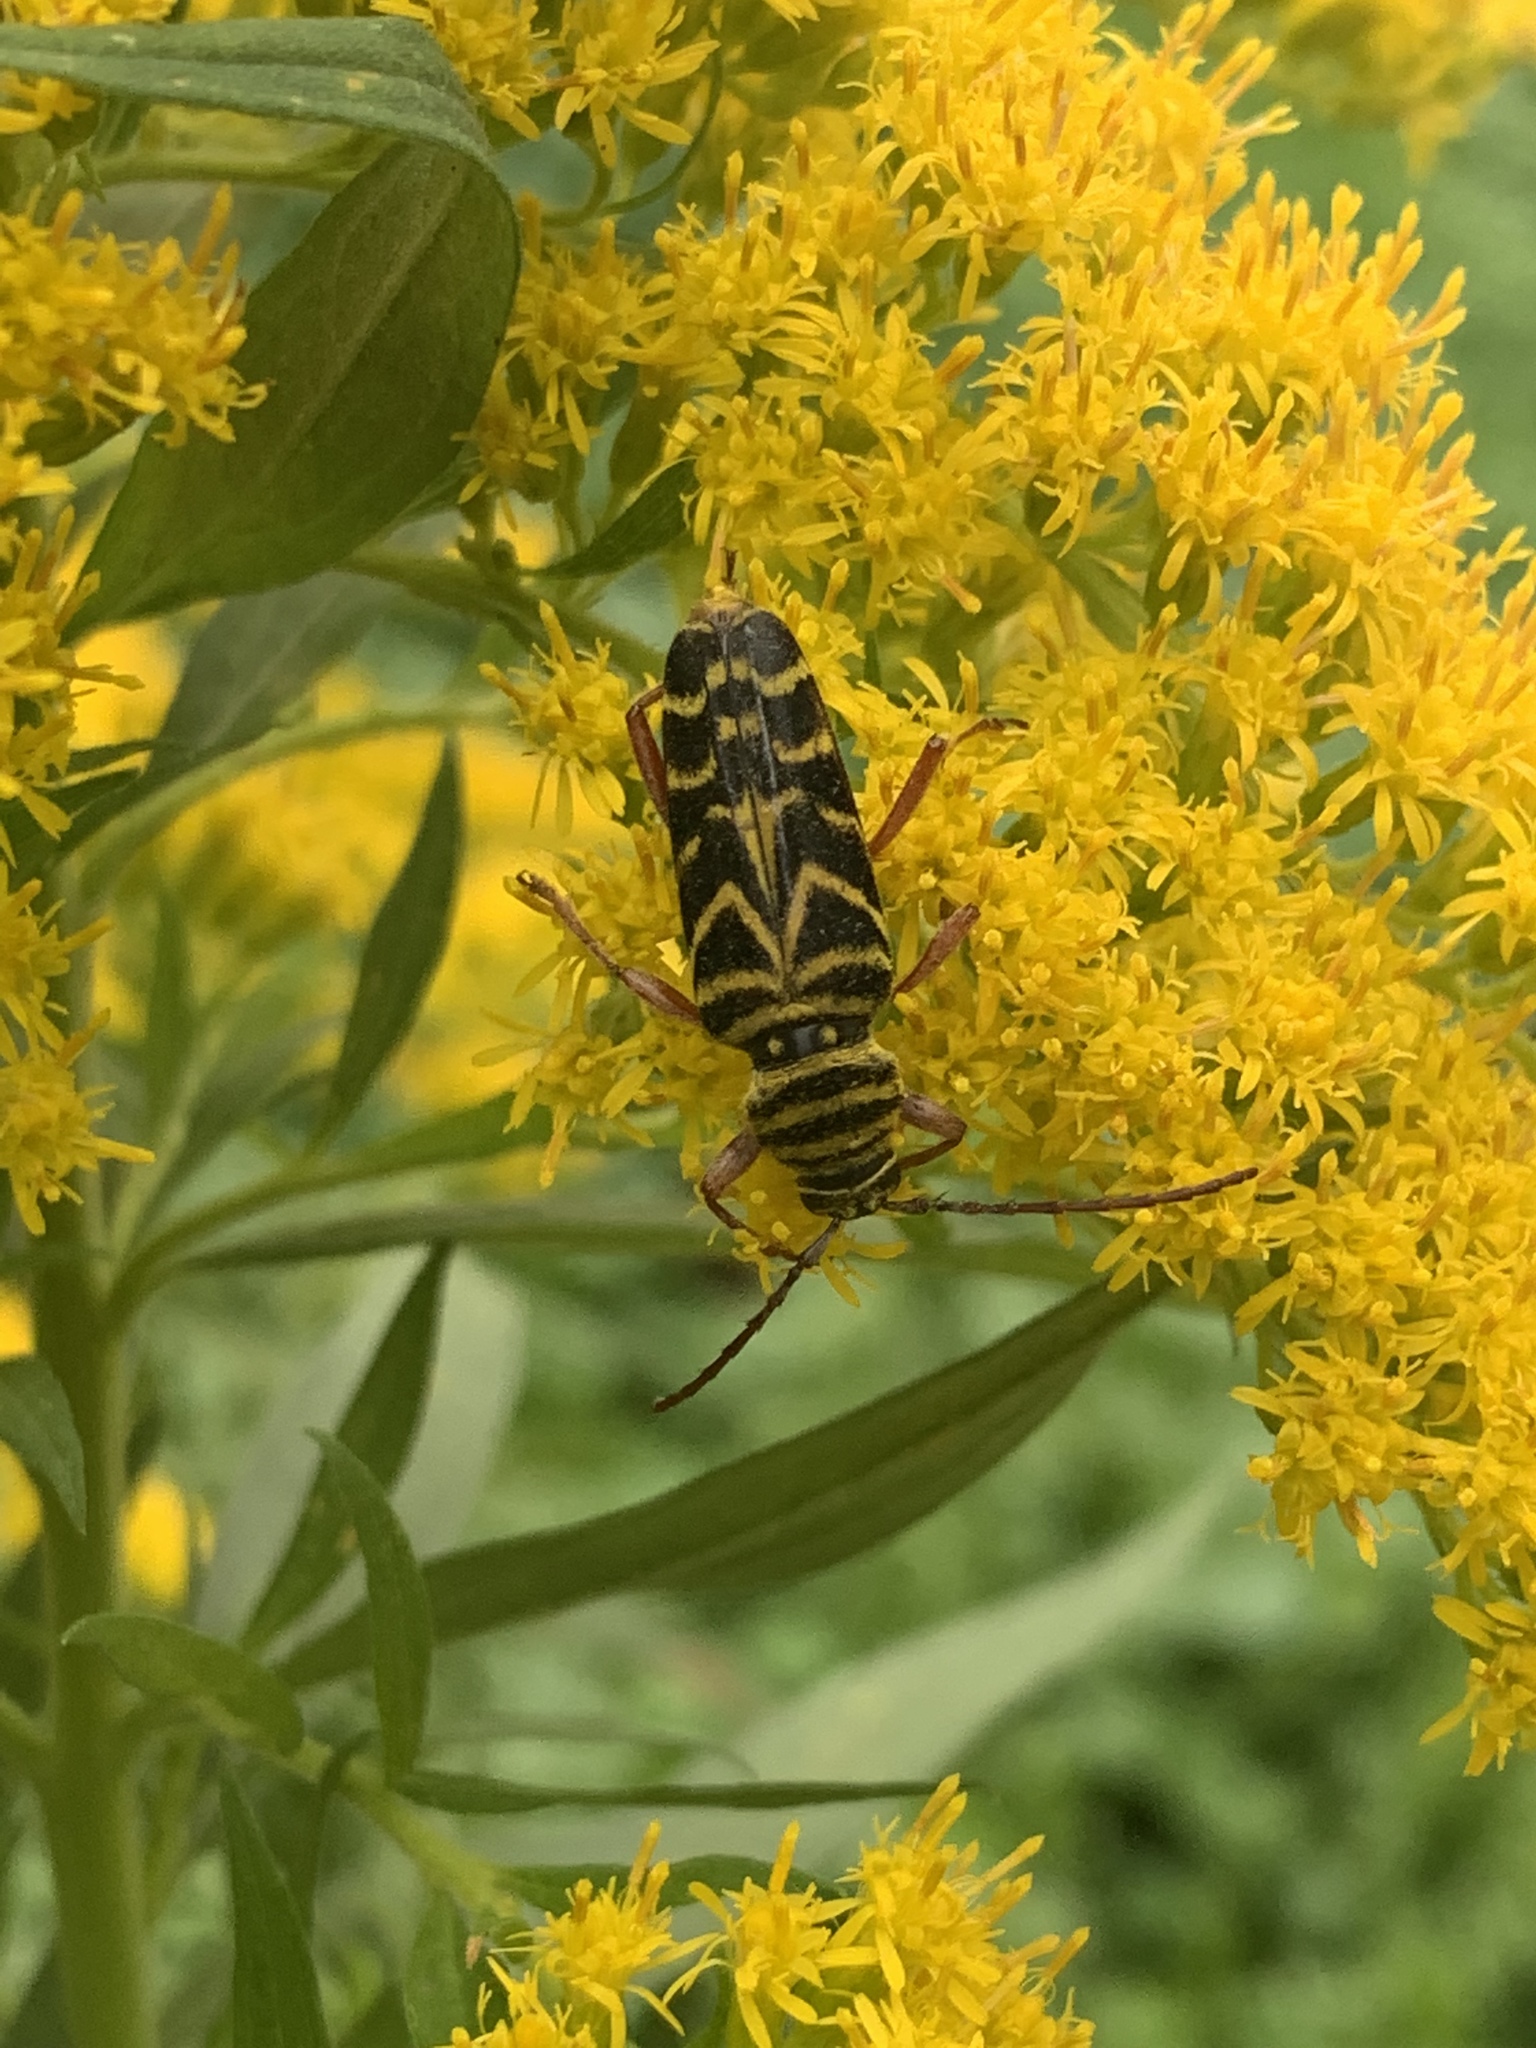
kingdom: Animalia
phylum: Arthropoda
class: Insecta
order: Coleoptera
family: Cerambycidae
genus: Megacyllene
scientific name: Megacyllene robiniae
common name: Locust borer
